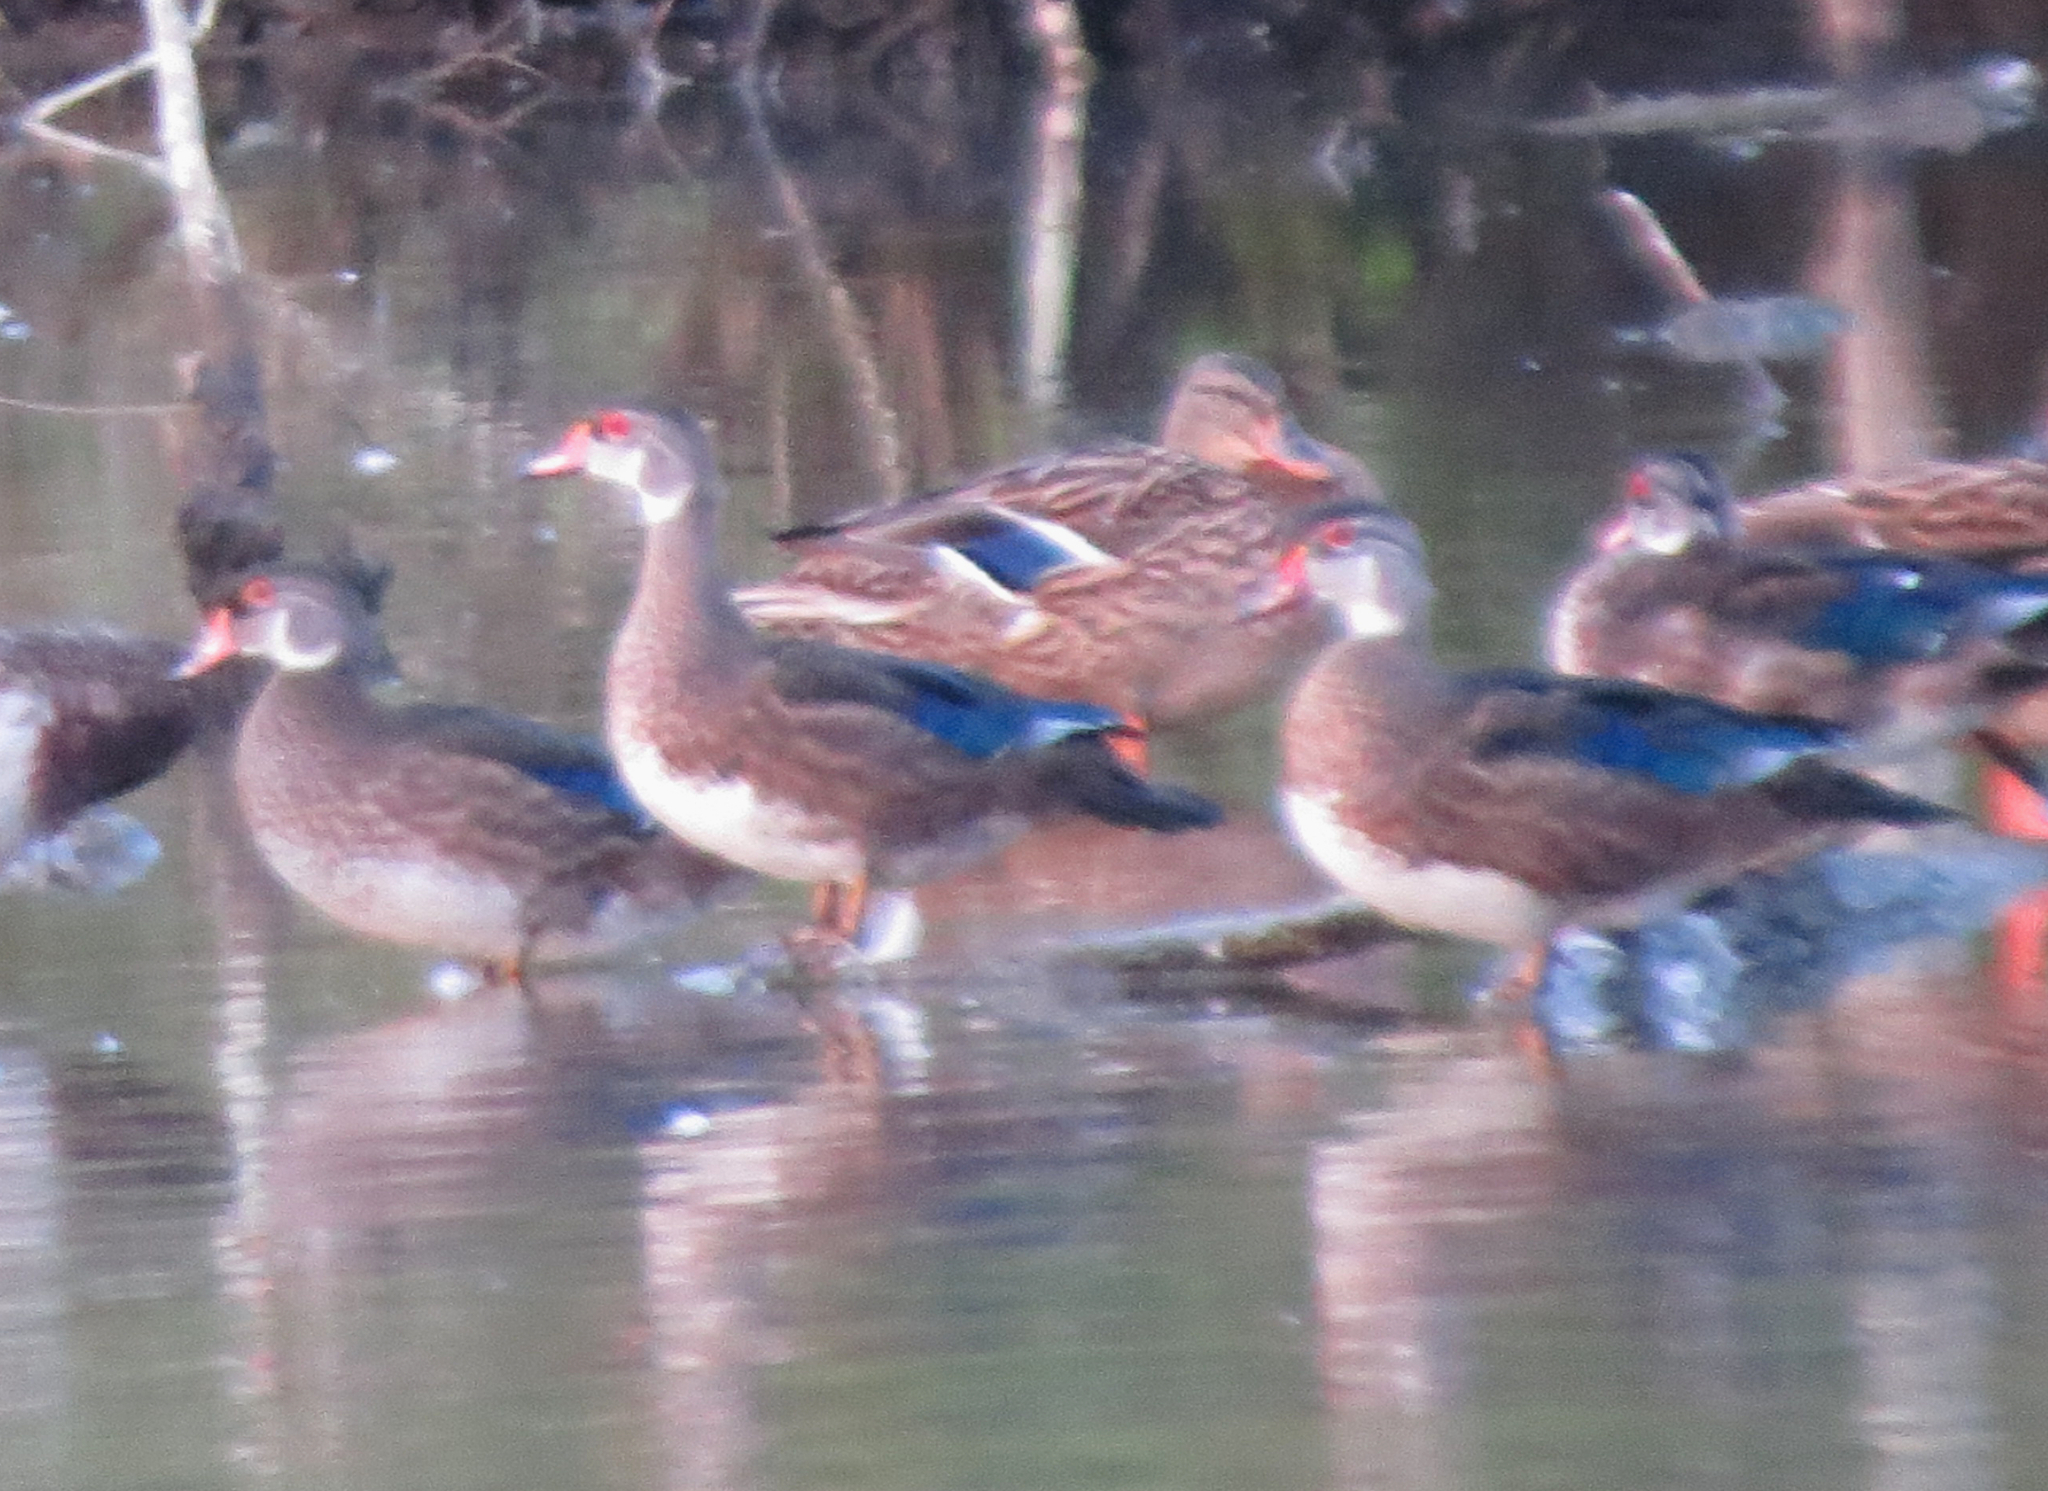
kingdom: Animalia
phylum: Chordata
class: Aves
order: Anseriformes
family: Anatidae
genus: Aix
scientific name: Aix sponsa
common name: Wood duck
